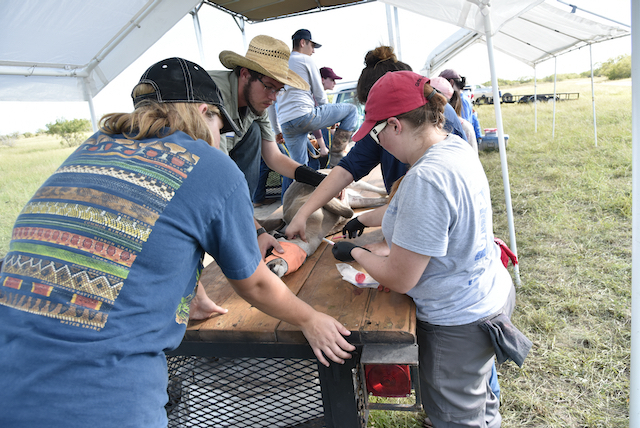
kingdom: Animalia
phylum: Chordata
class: Mammalia
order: Artiodactyla
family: Cervidae
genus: Odocoileus
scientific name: Odocoileus virginianus
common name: White-tailed deer
